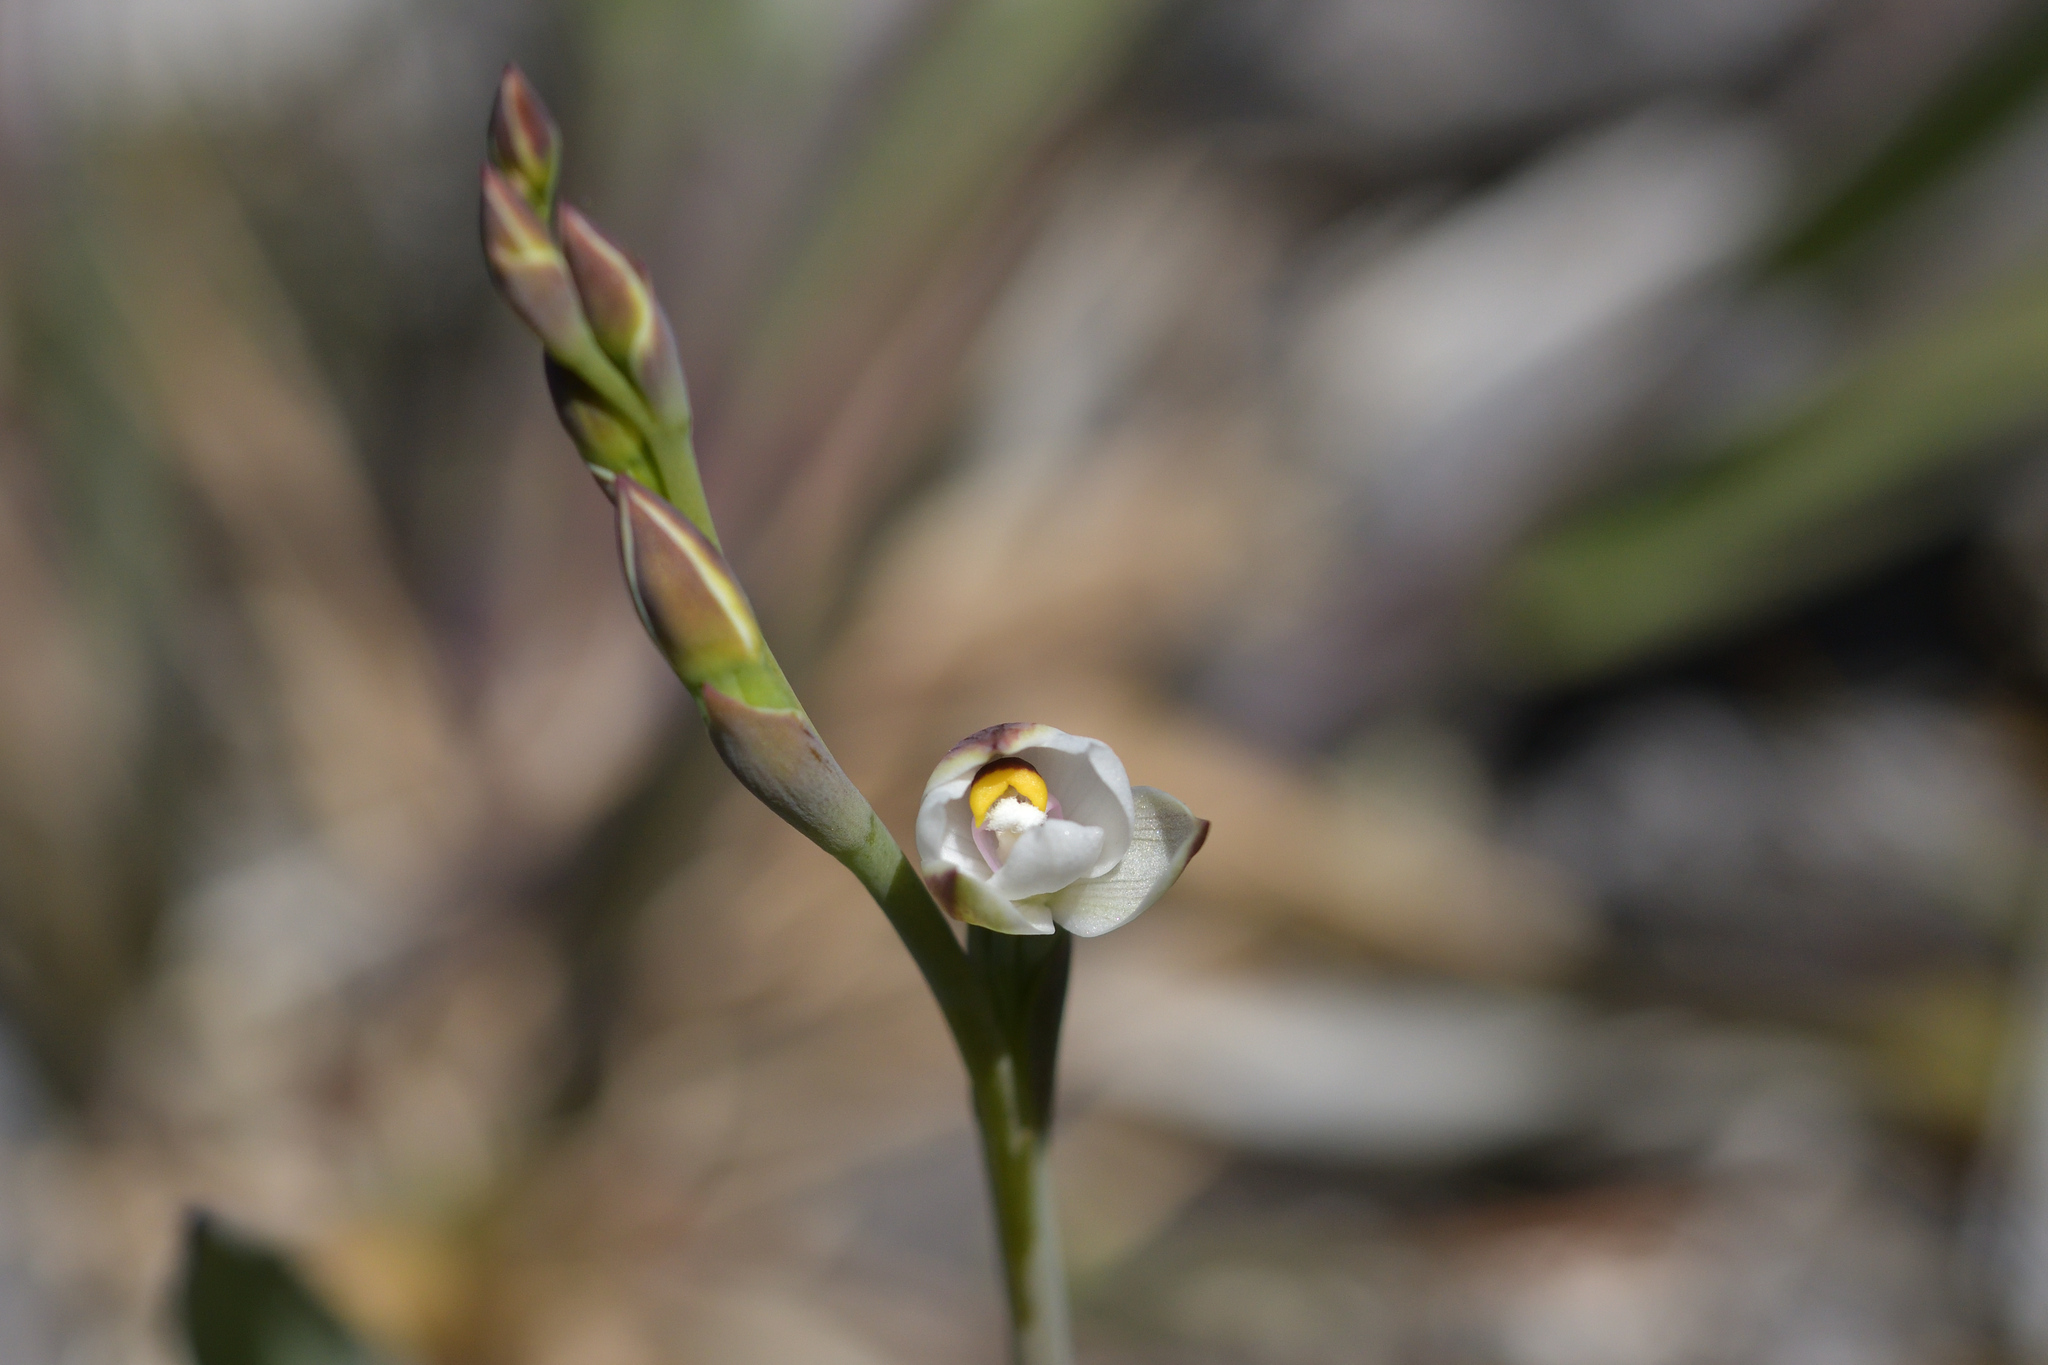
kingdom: Plantae
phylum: Tracheophyta
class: Liliopsida
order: Asparagales
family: Orchidaceae
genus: Thelymitra
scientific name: Thelymitra longifolia
